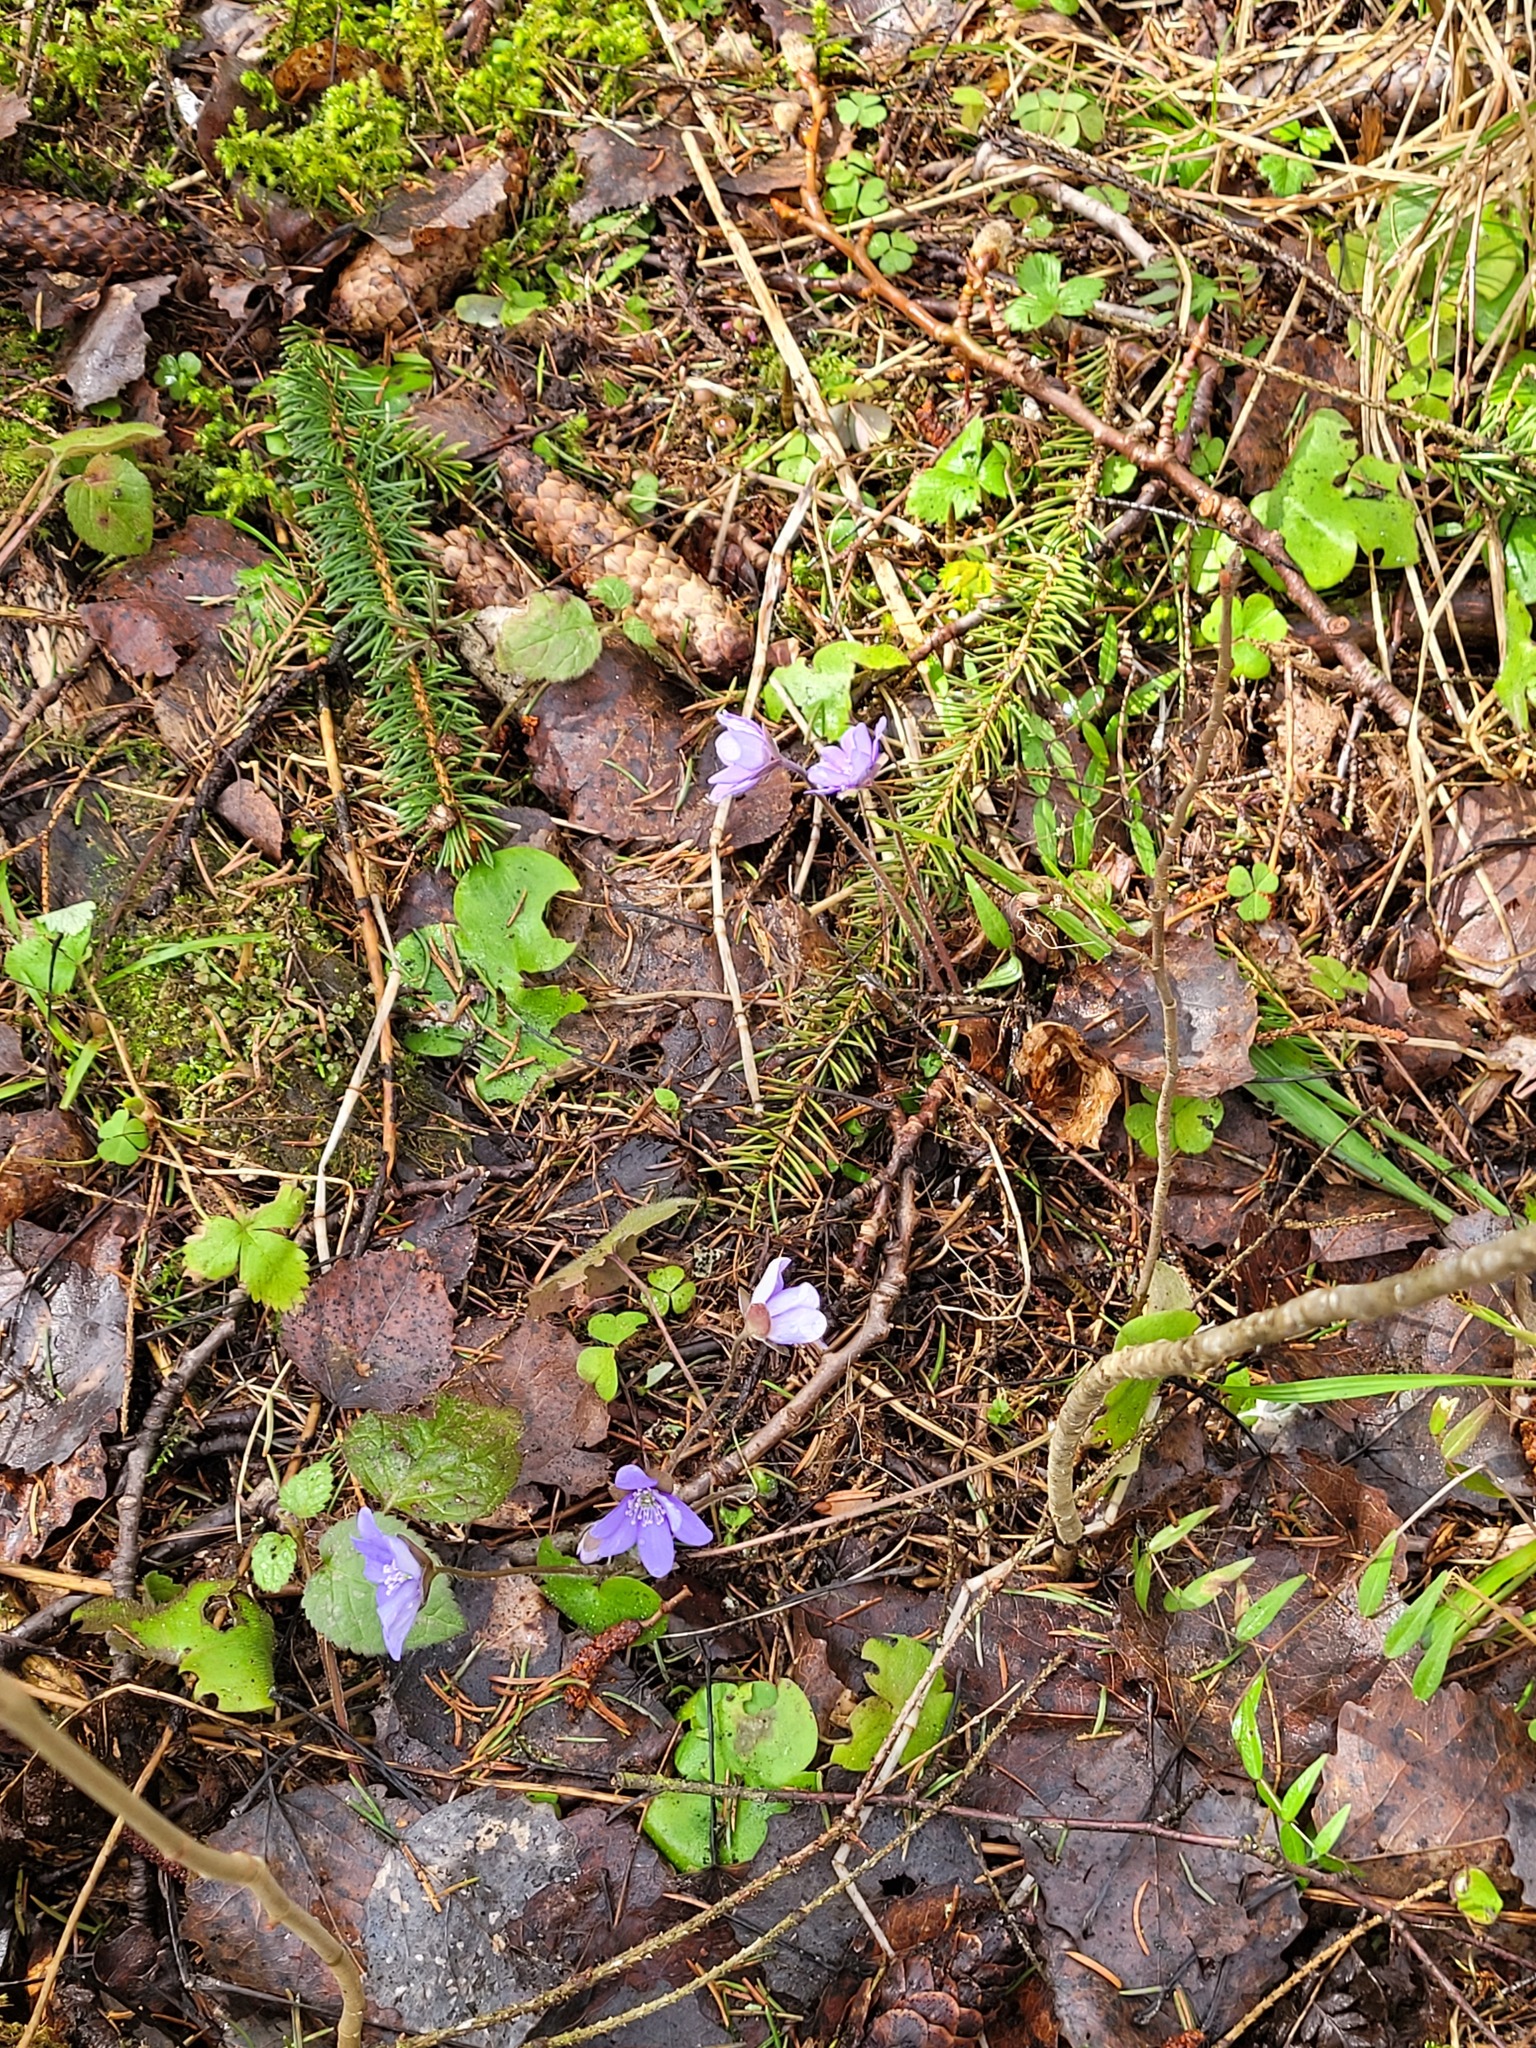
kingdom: Plantae
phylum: Tracheophyta
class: Magnoliopsida
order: Ranunculales
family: Ranunculaceae
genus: Hepatica
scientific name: Hepatica nobilis
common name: Liverleaf
